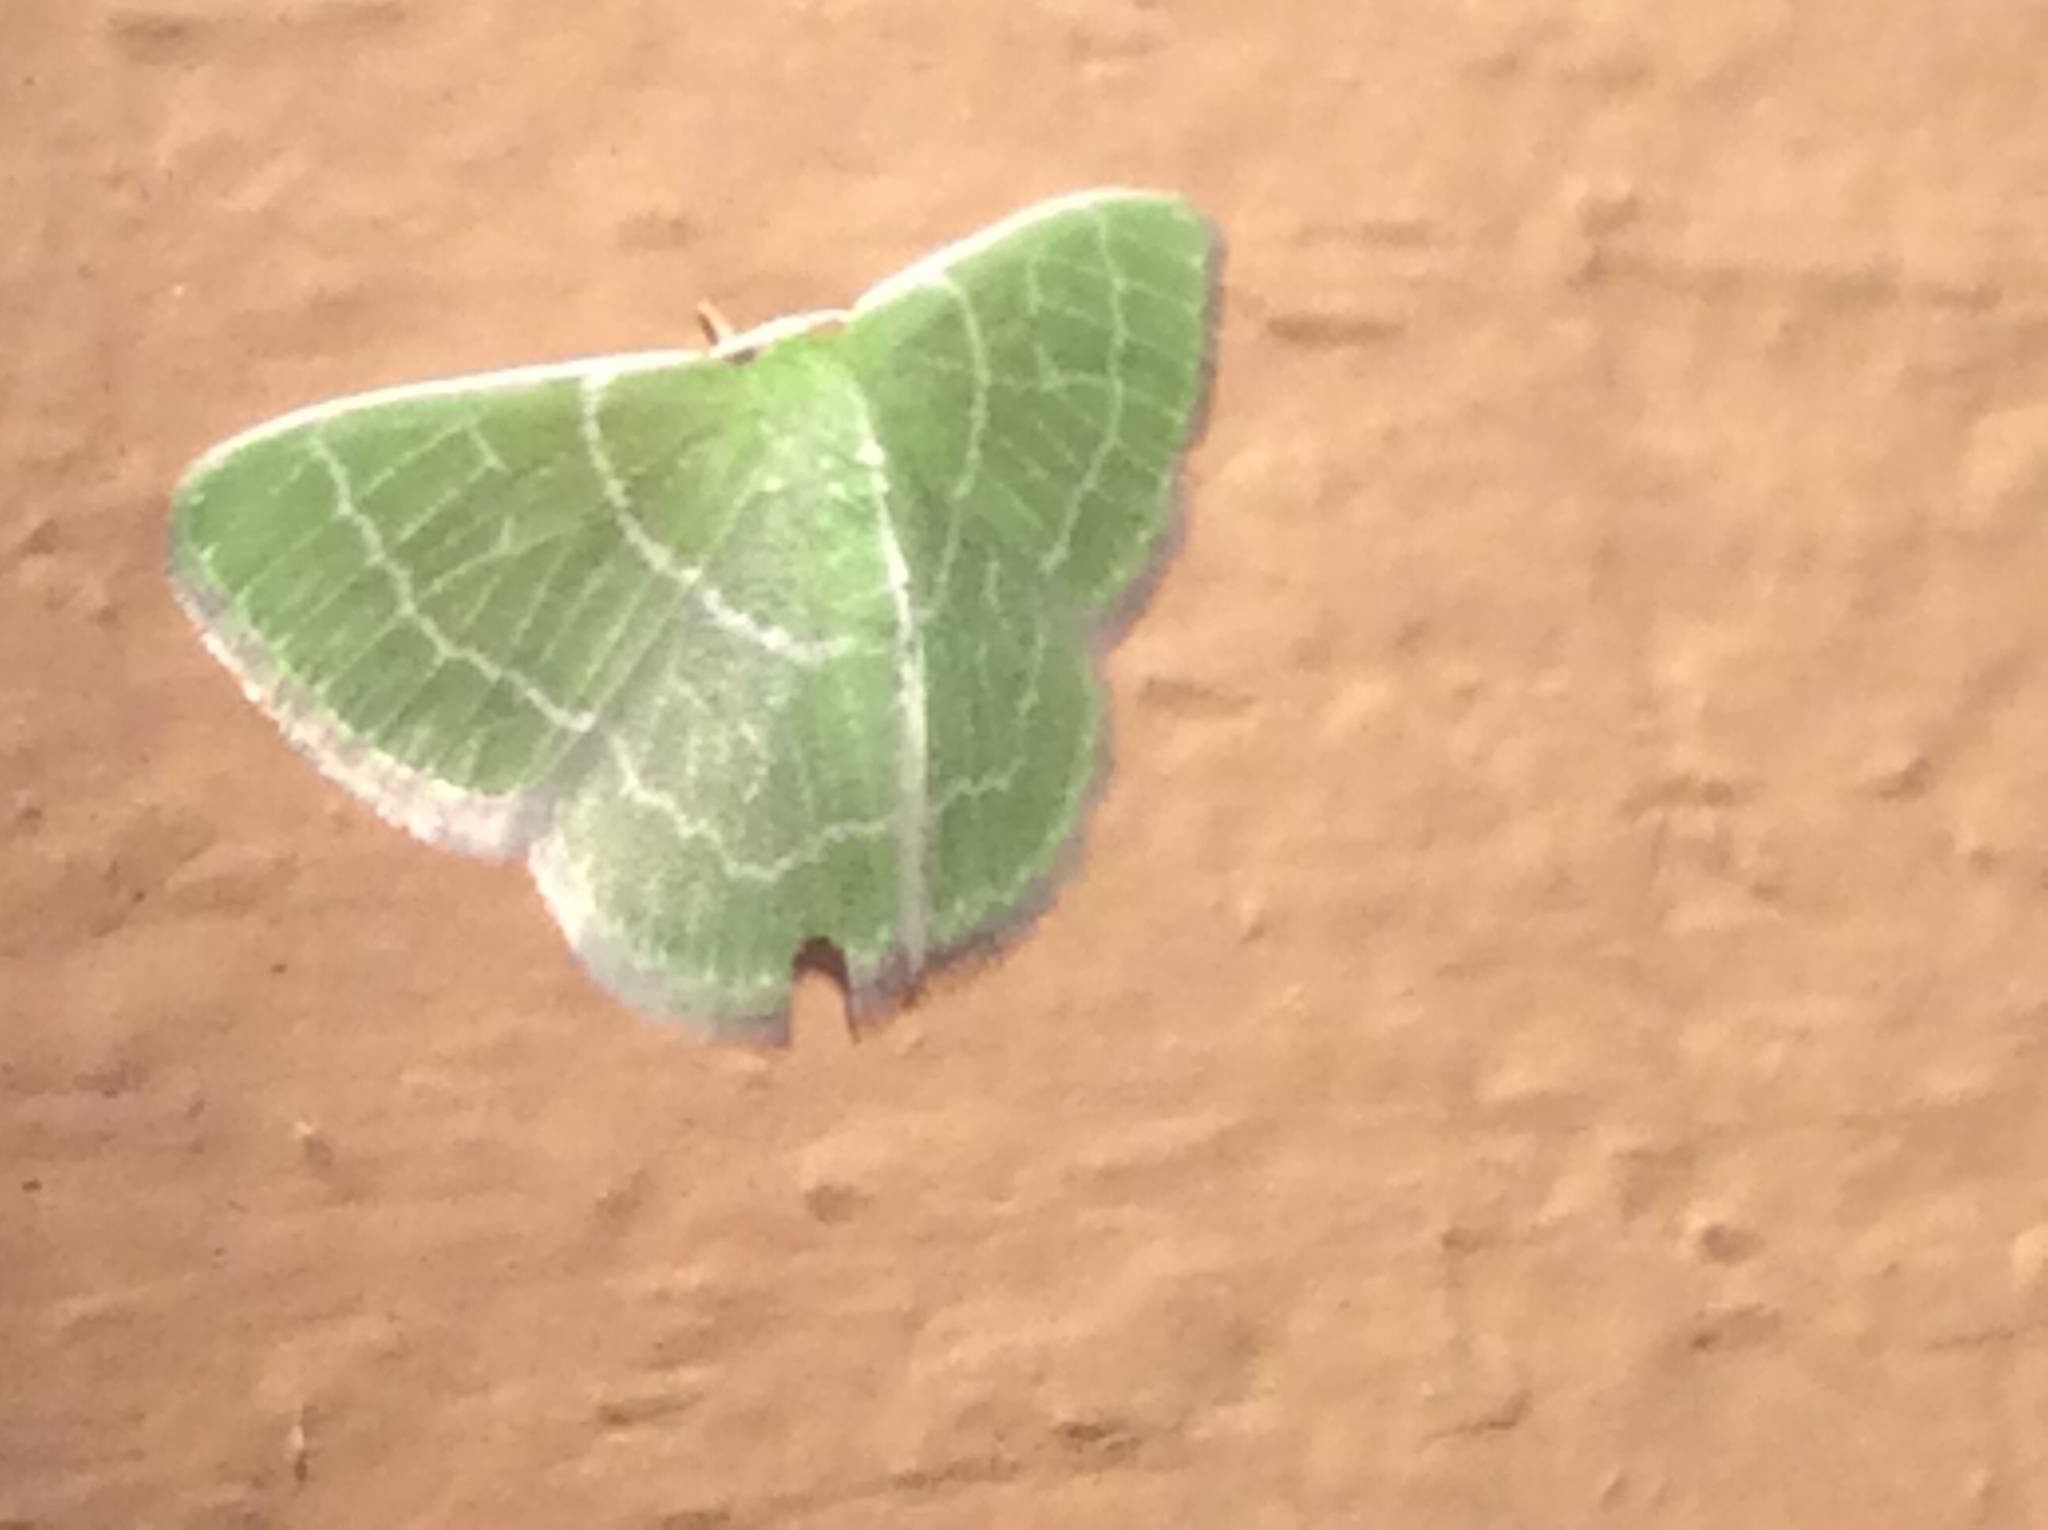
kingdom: Animalia
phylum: Arthropoda
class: Insecta
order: Lepidoptera
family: Geometridae
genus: Synchlora
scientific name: Synchlora aerata
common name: Wavy-lined emerald
